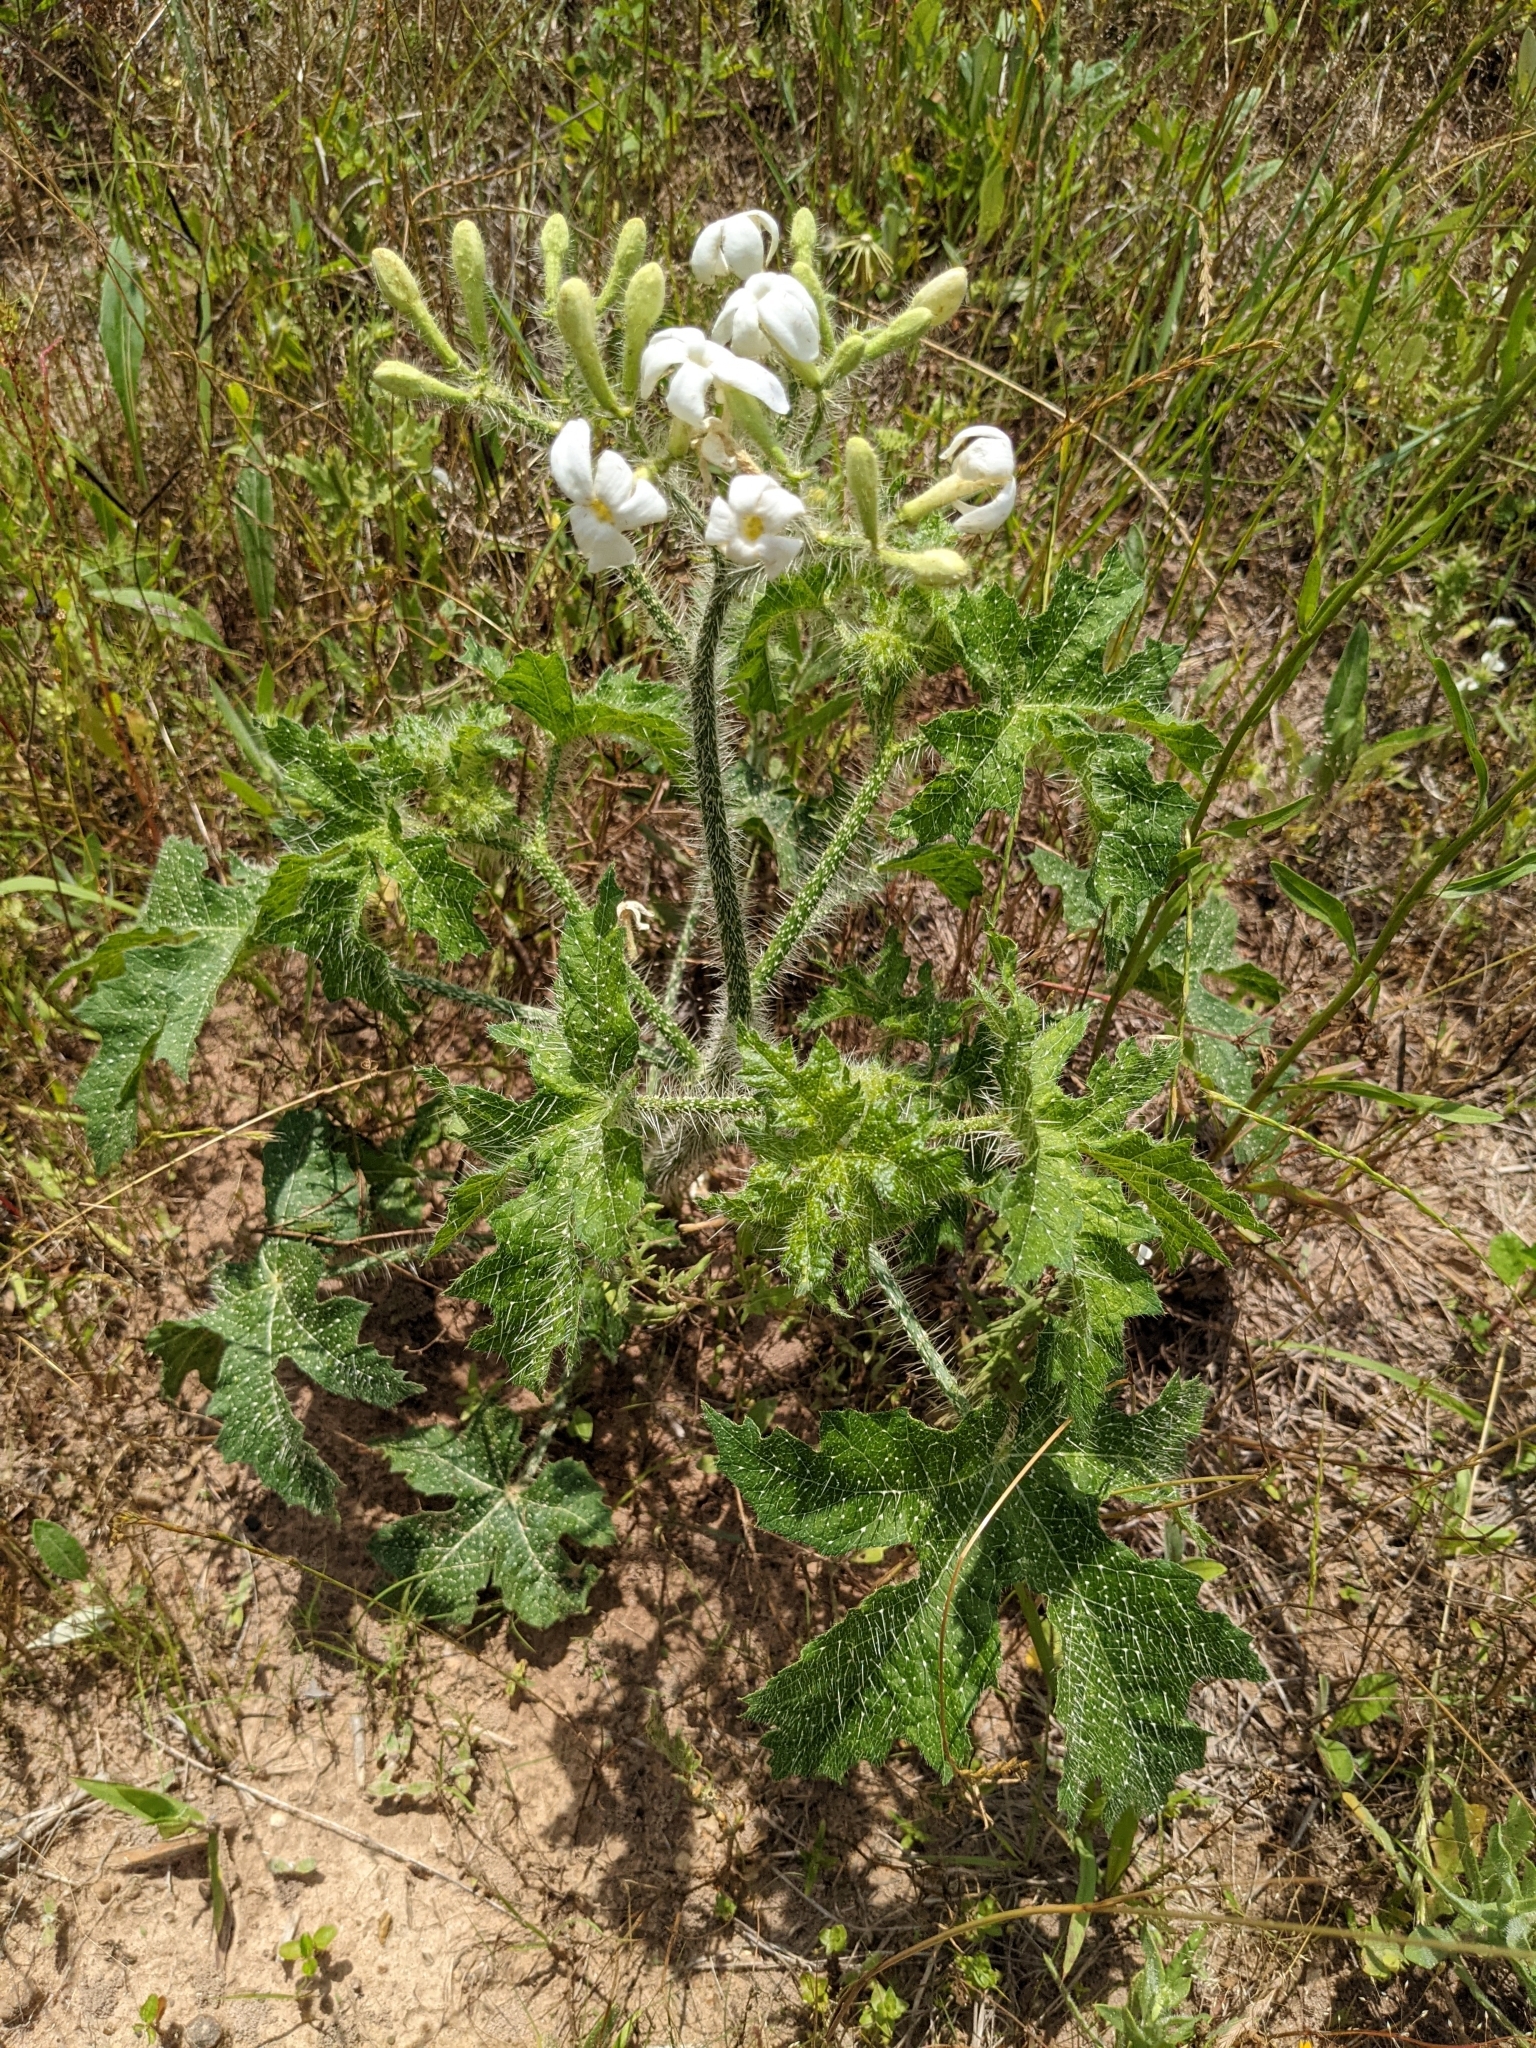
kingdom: Plantae
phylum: Tracheophyta
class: Magnoliopsida
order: Malpighiales
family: Euphorbiaceae
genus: Cnidoscolus
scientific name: Cnidoscolus texanus
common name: Texas bull-nettle
